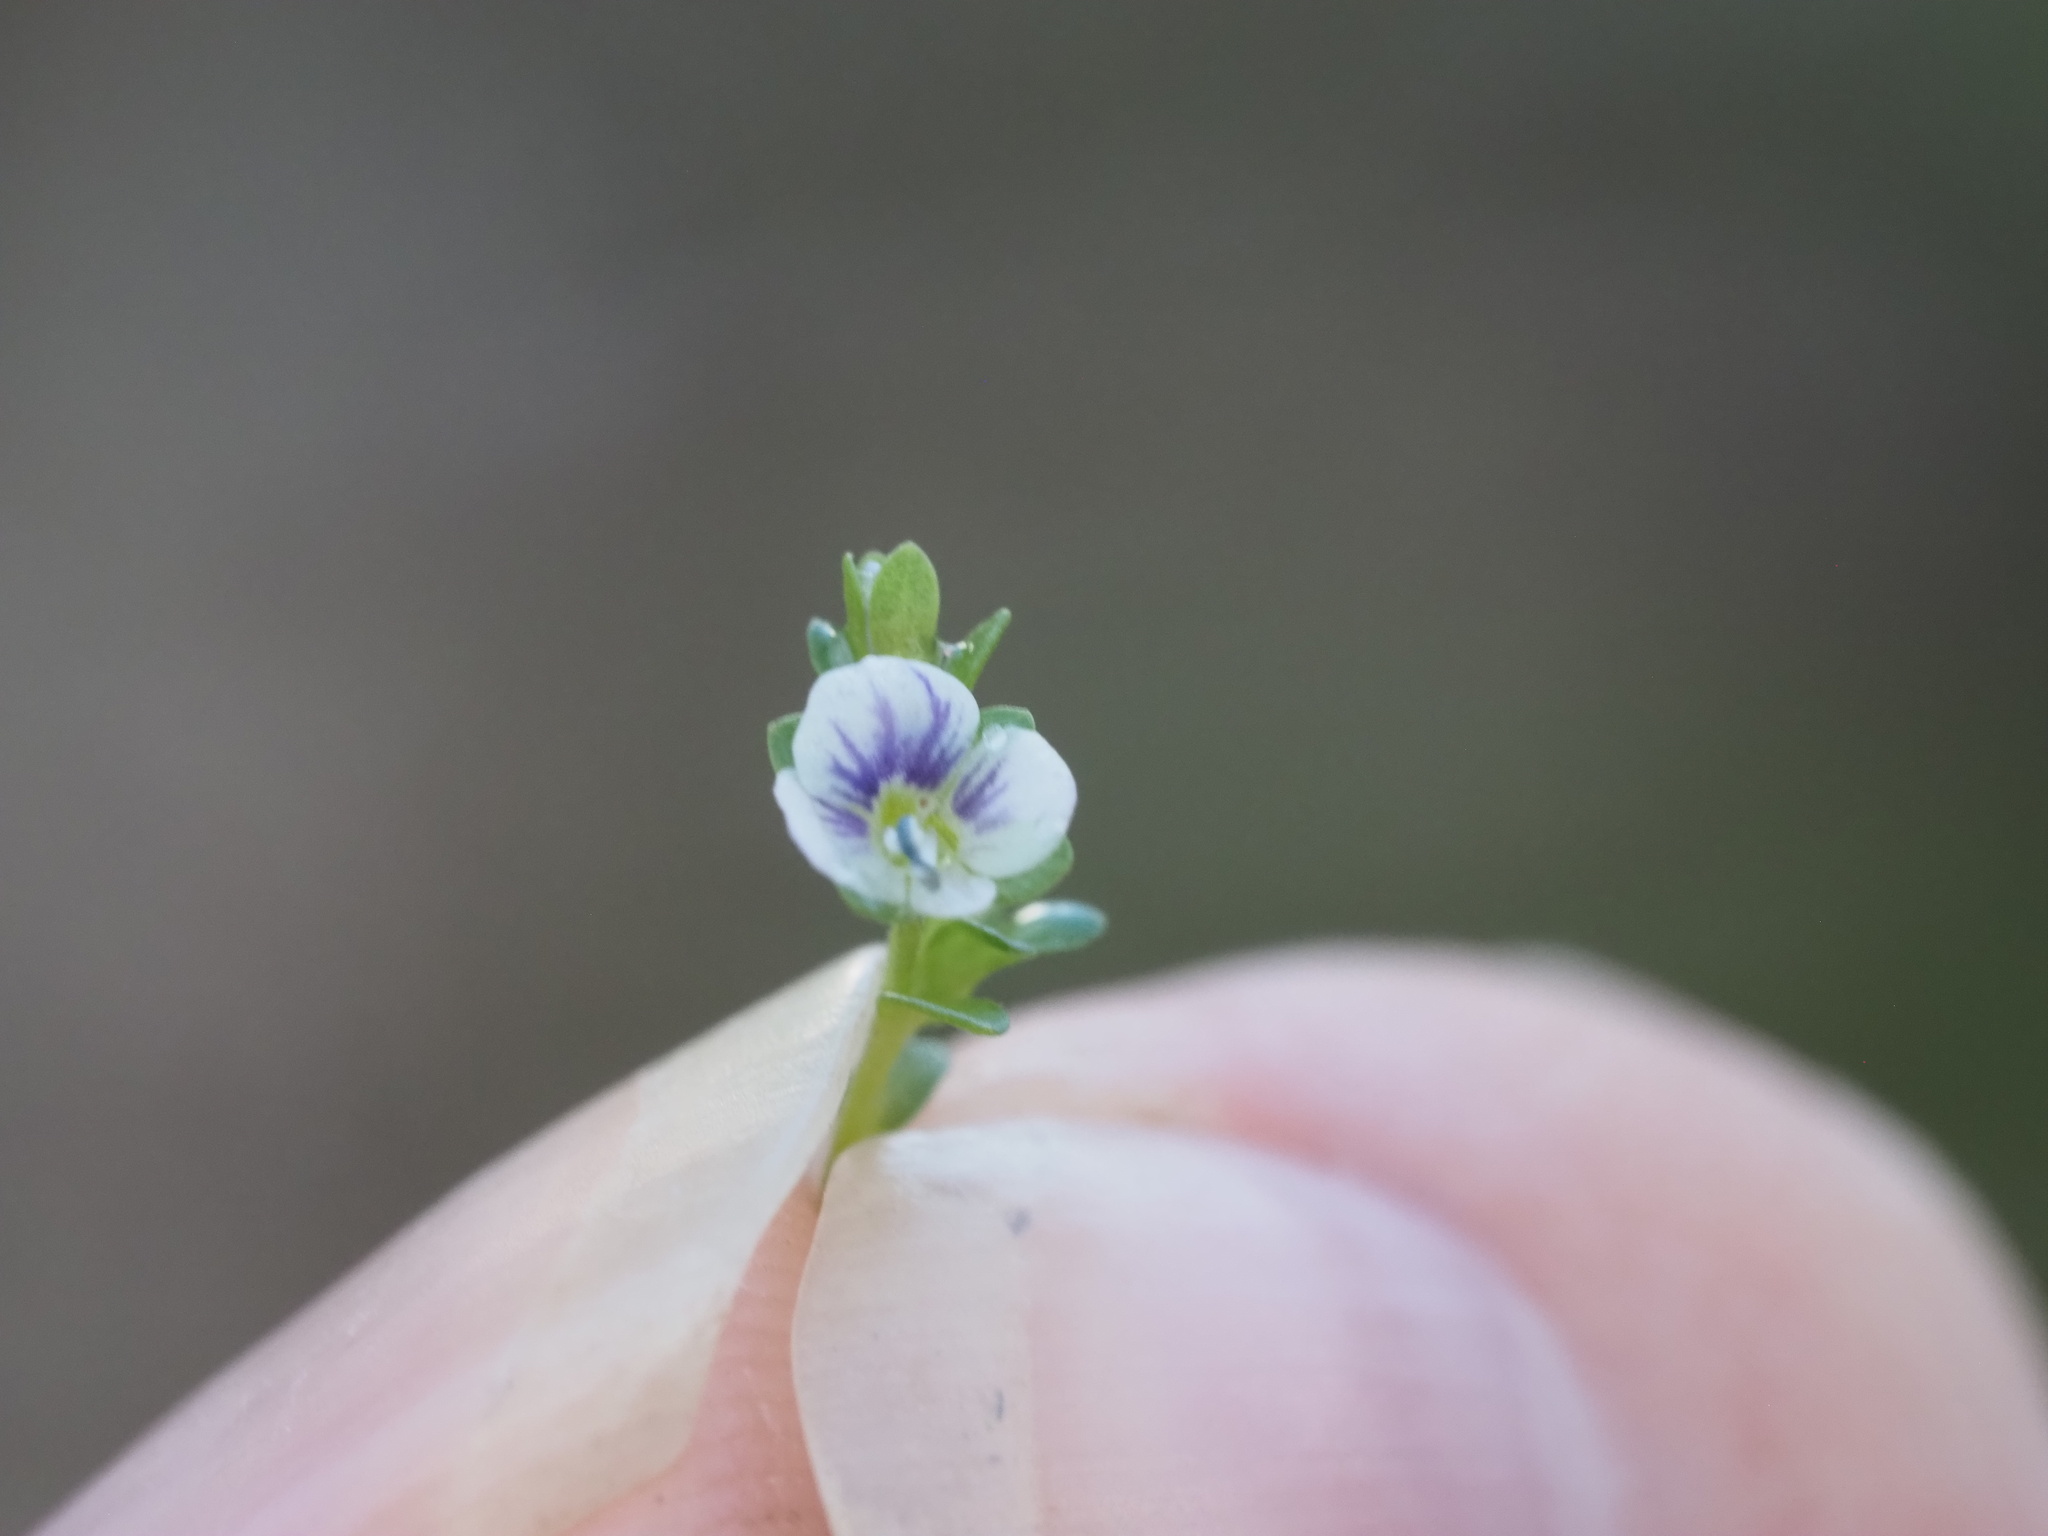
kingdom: Plantae
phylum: Tracheophyta
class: Magnoliopsida
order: Lamiales
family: Plantaginaceae
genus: Veronica
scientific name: Veronica serpyllifolia
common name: Thyme-leaved speedwell
